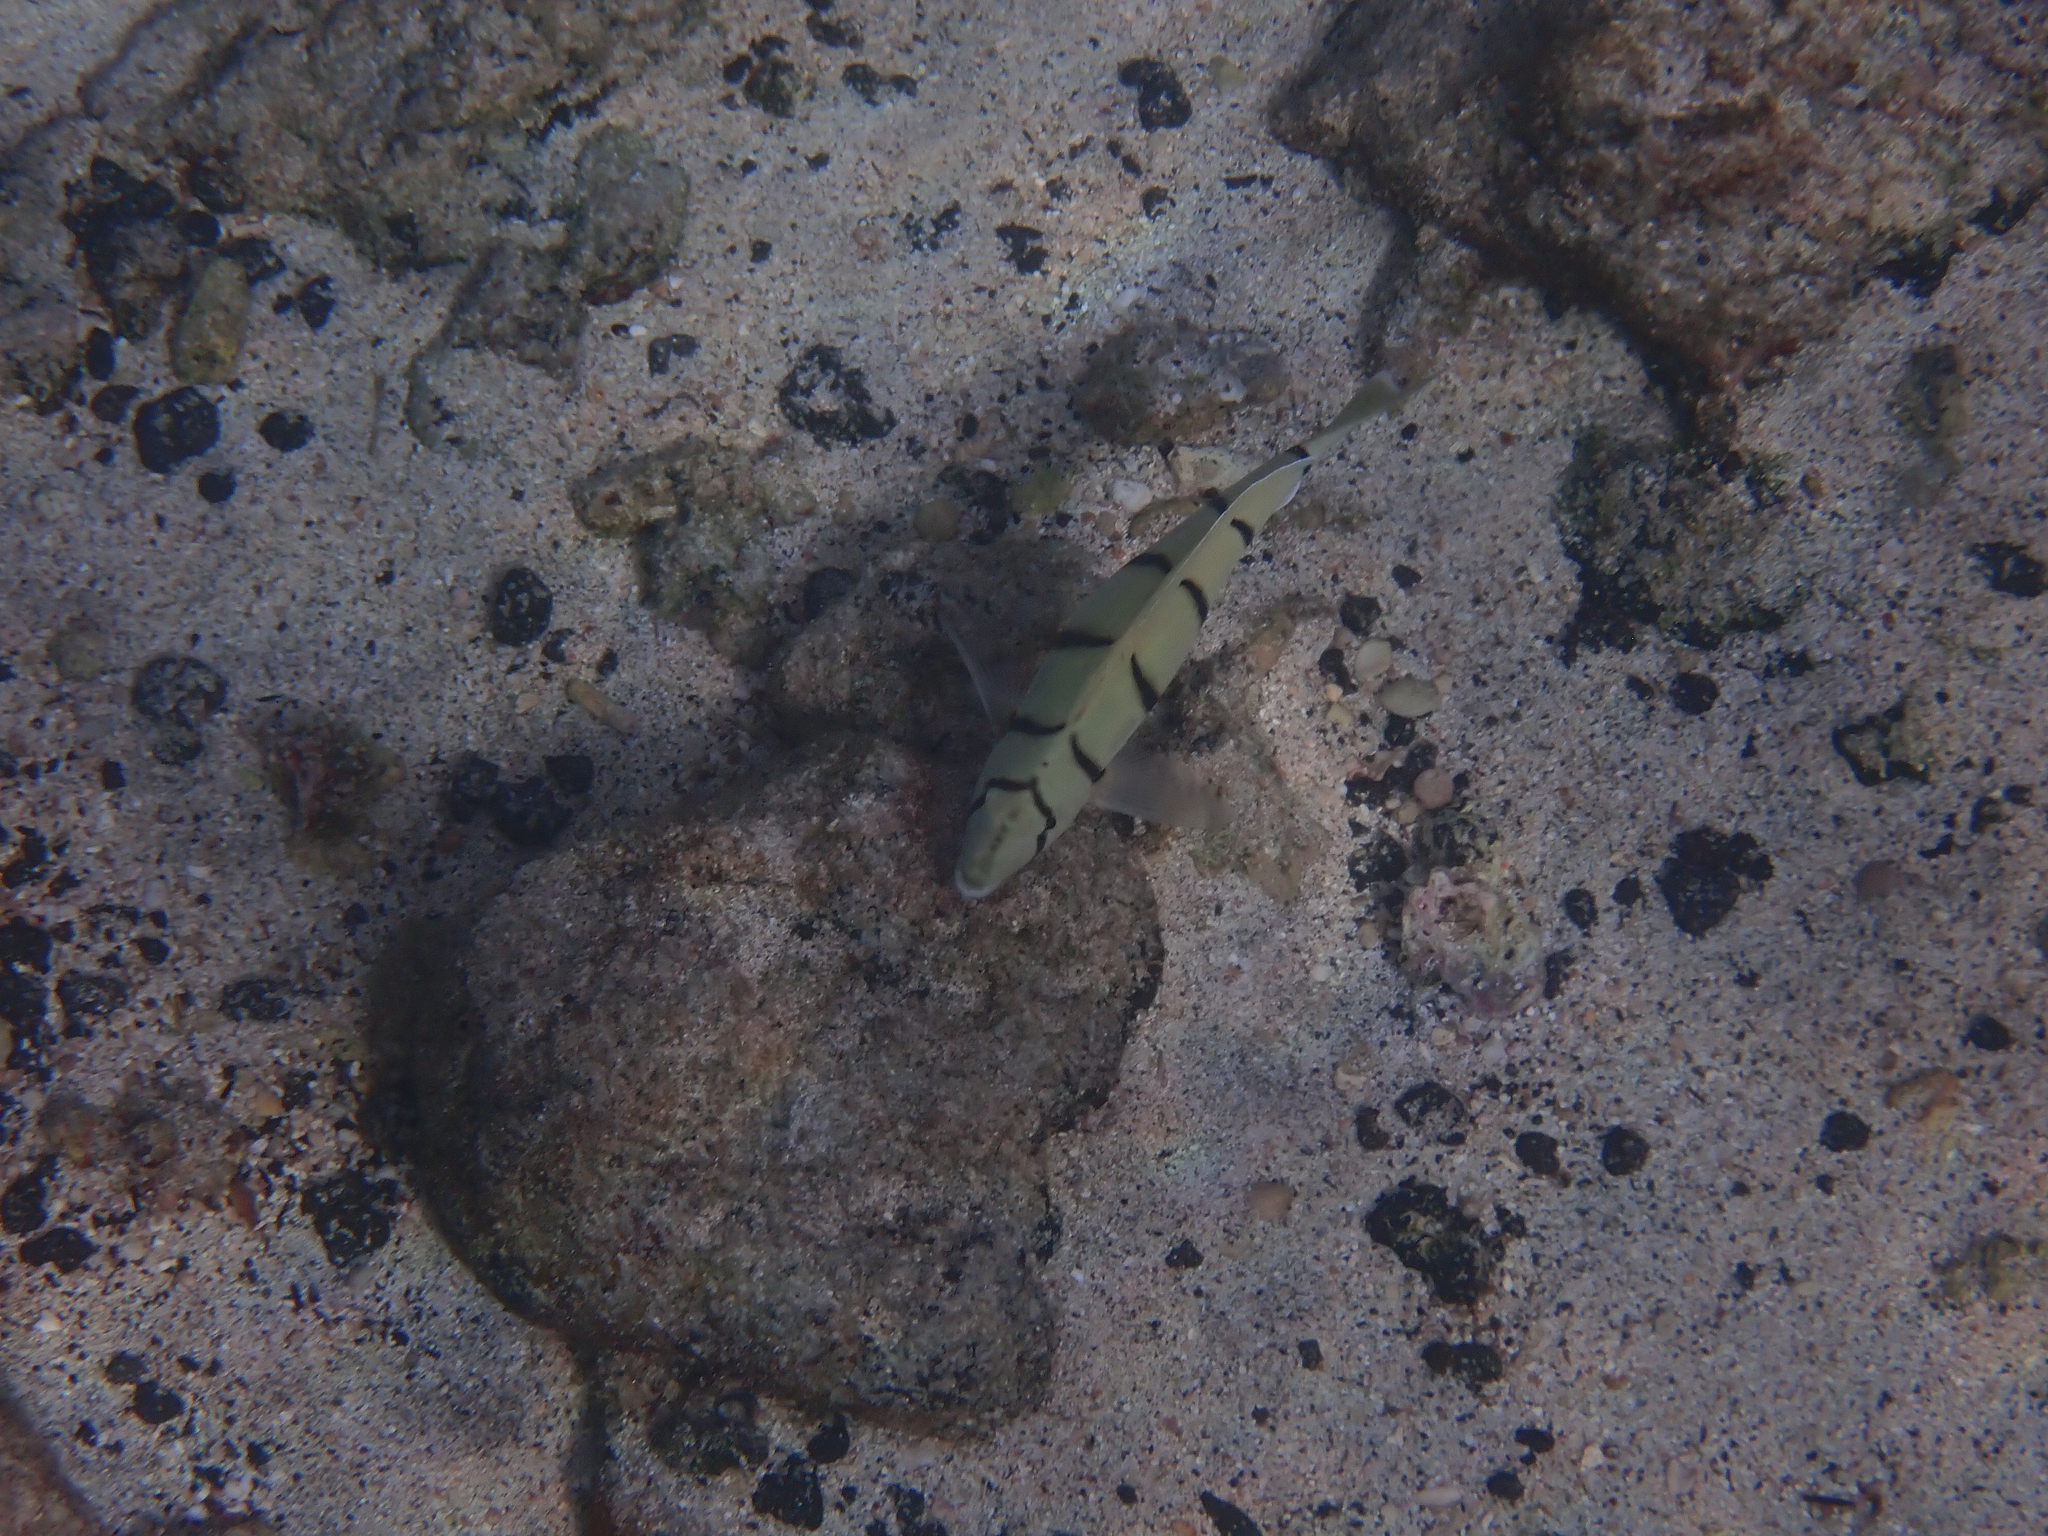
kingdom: Animalia
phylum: Chordata
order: Perciformes
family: Acanthuridae
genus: Acanthurus
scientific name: Acanthurus triostegus
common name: Convict surgeonfish
